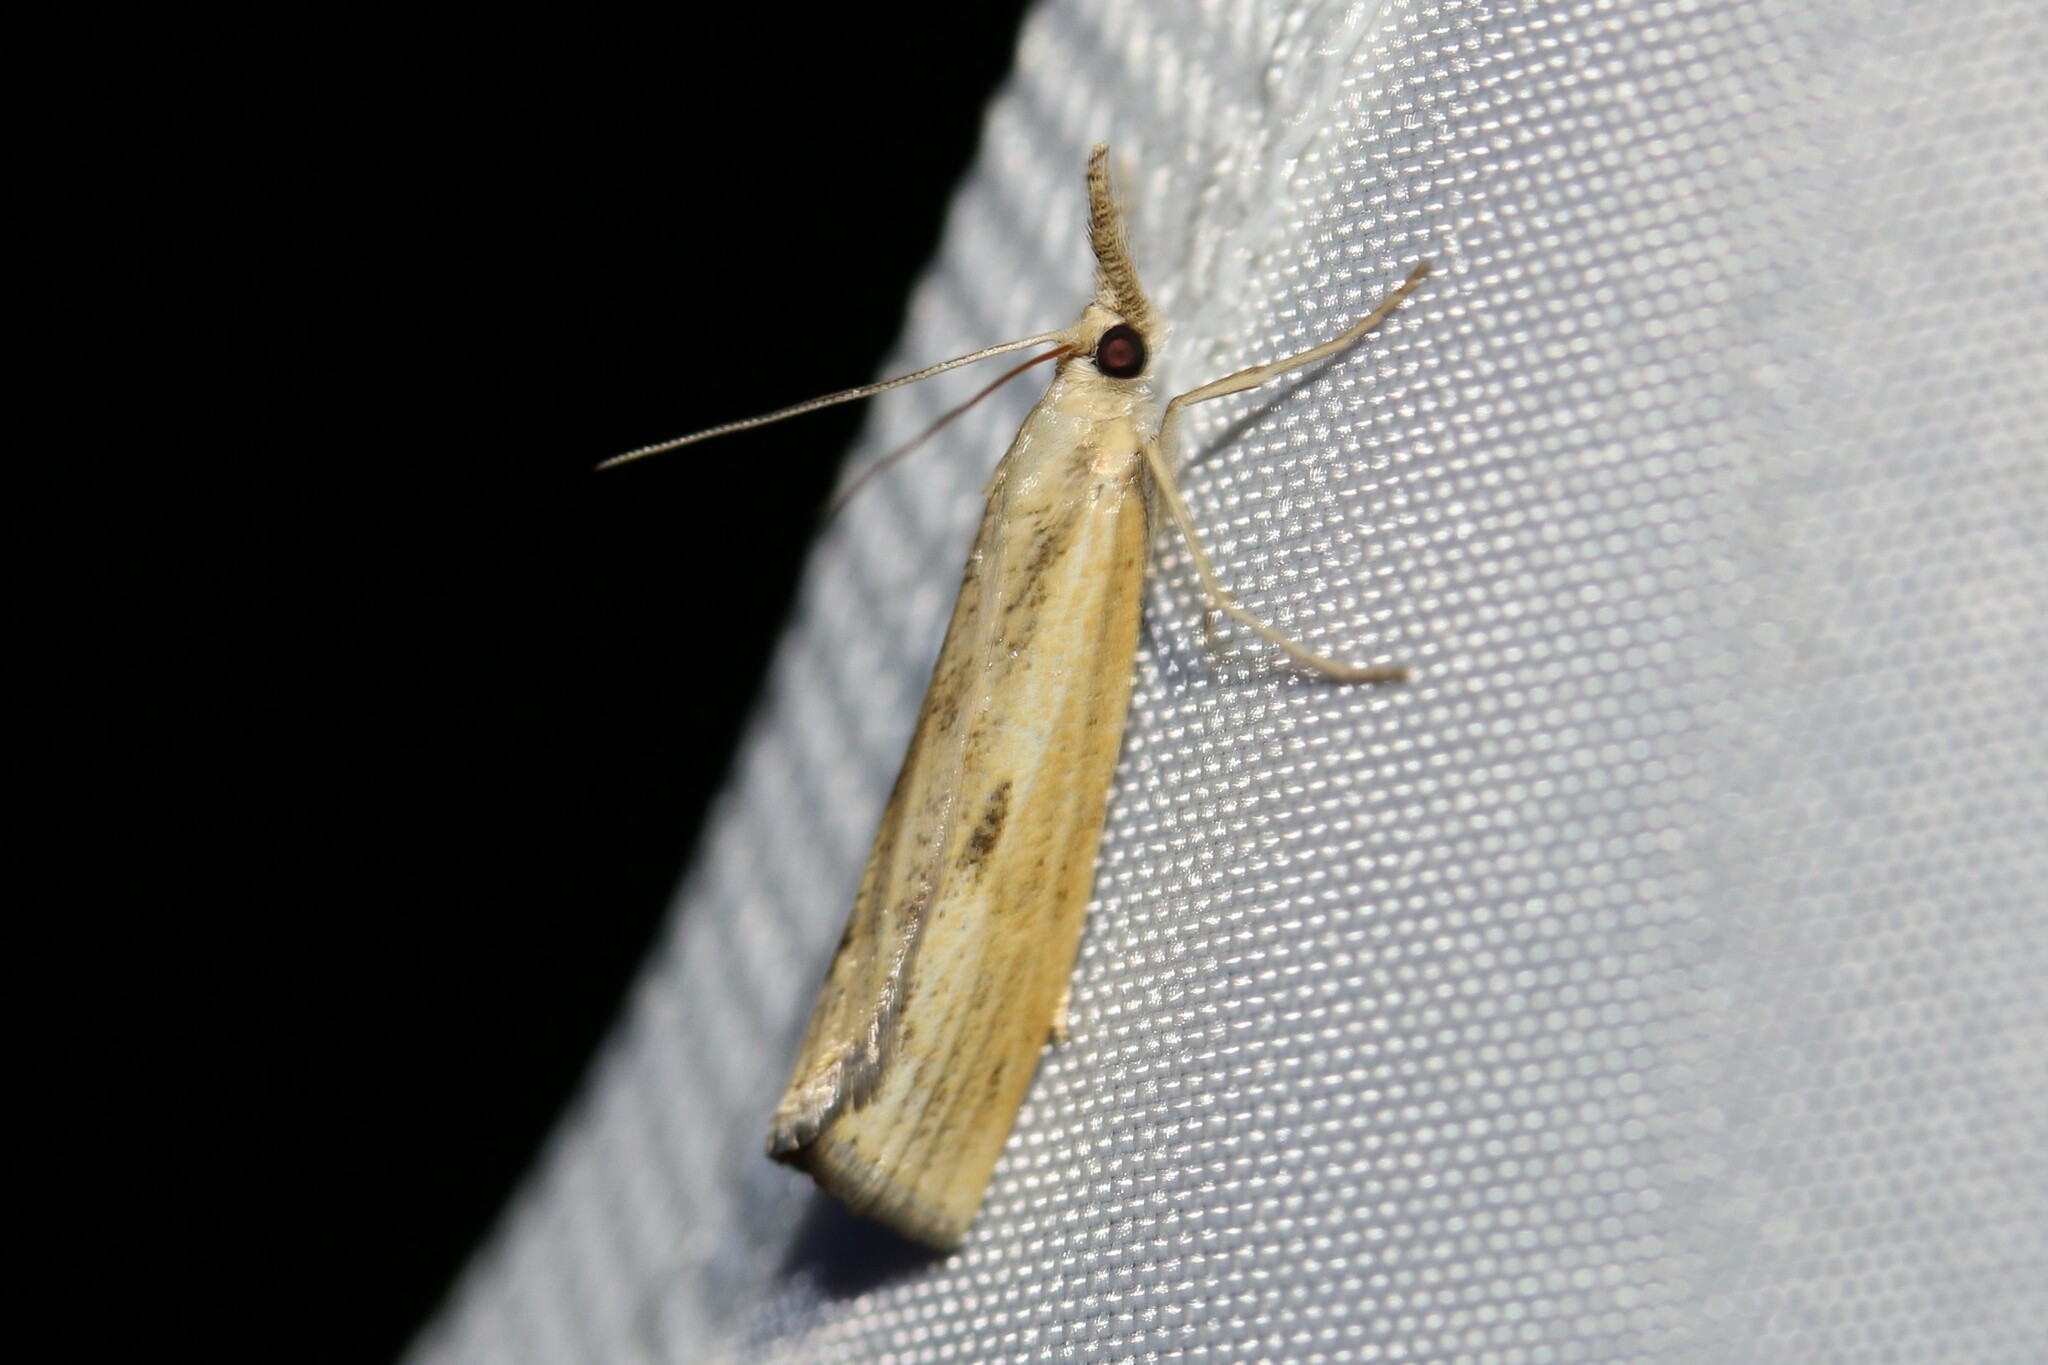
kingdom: Animalia
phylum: Arthropoda
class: Insecta
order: Lepidoptera
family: Crambidae
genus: Agriphila
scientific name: Agriphila inquinatella
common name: Barred grass-veneer
